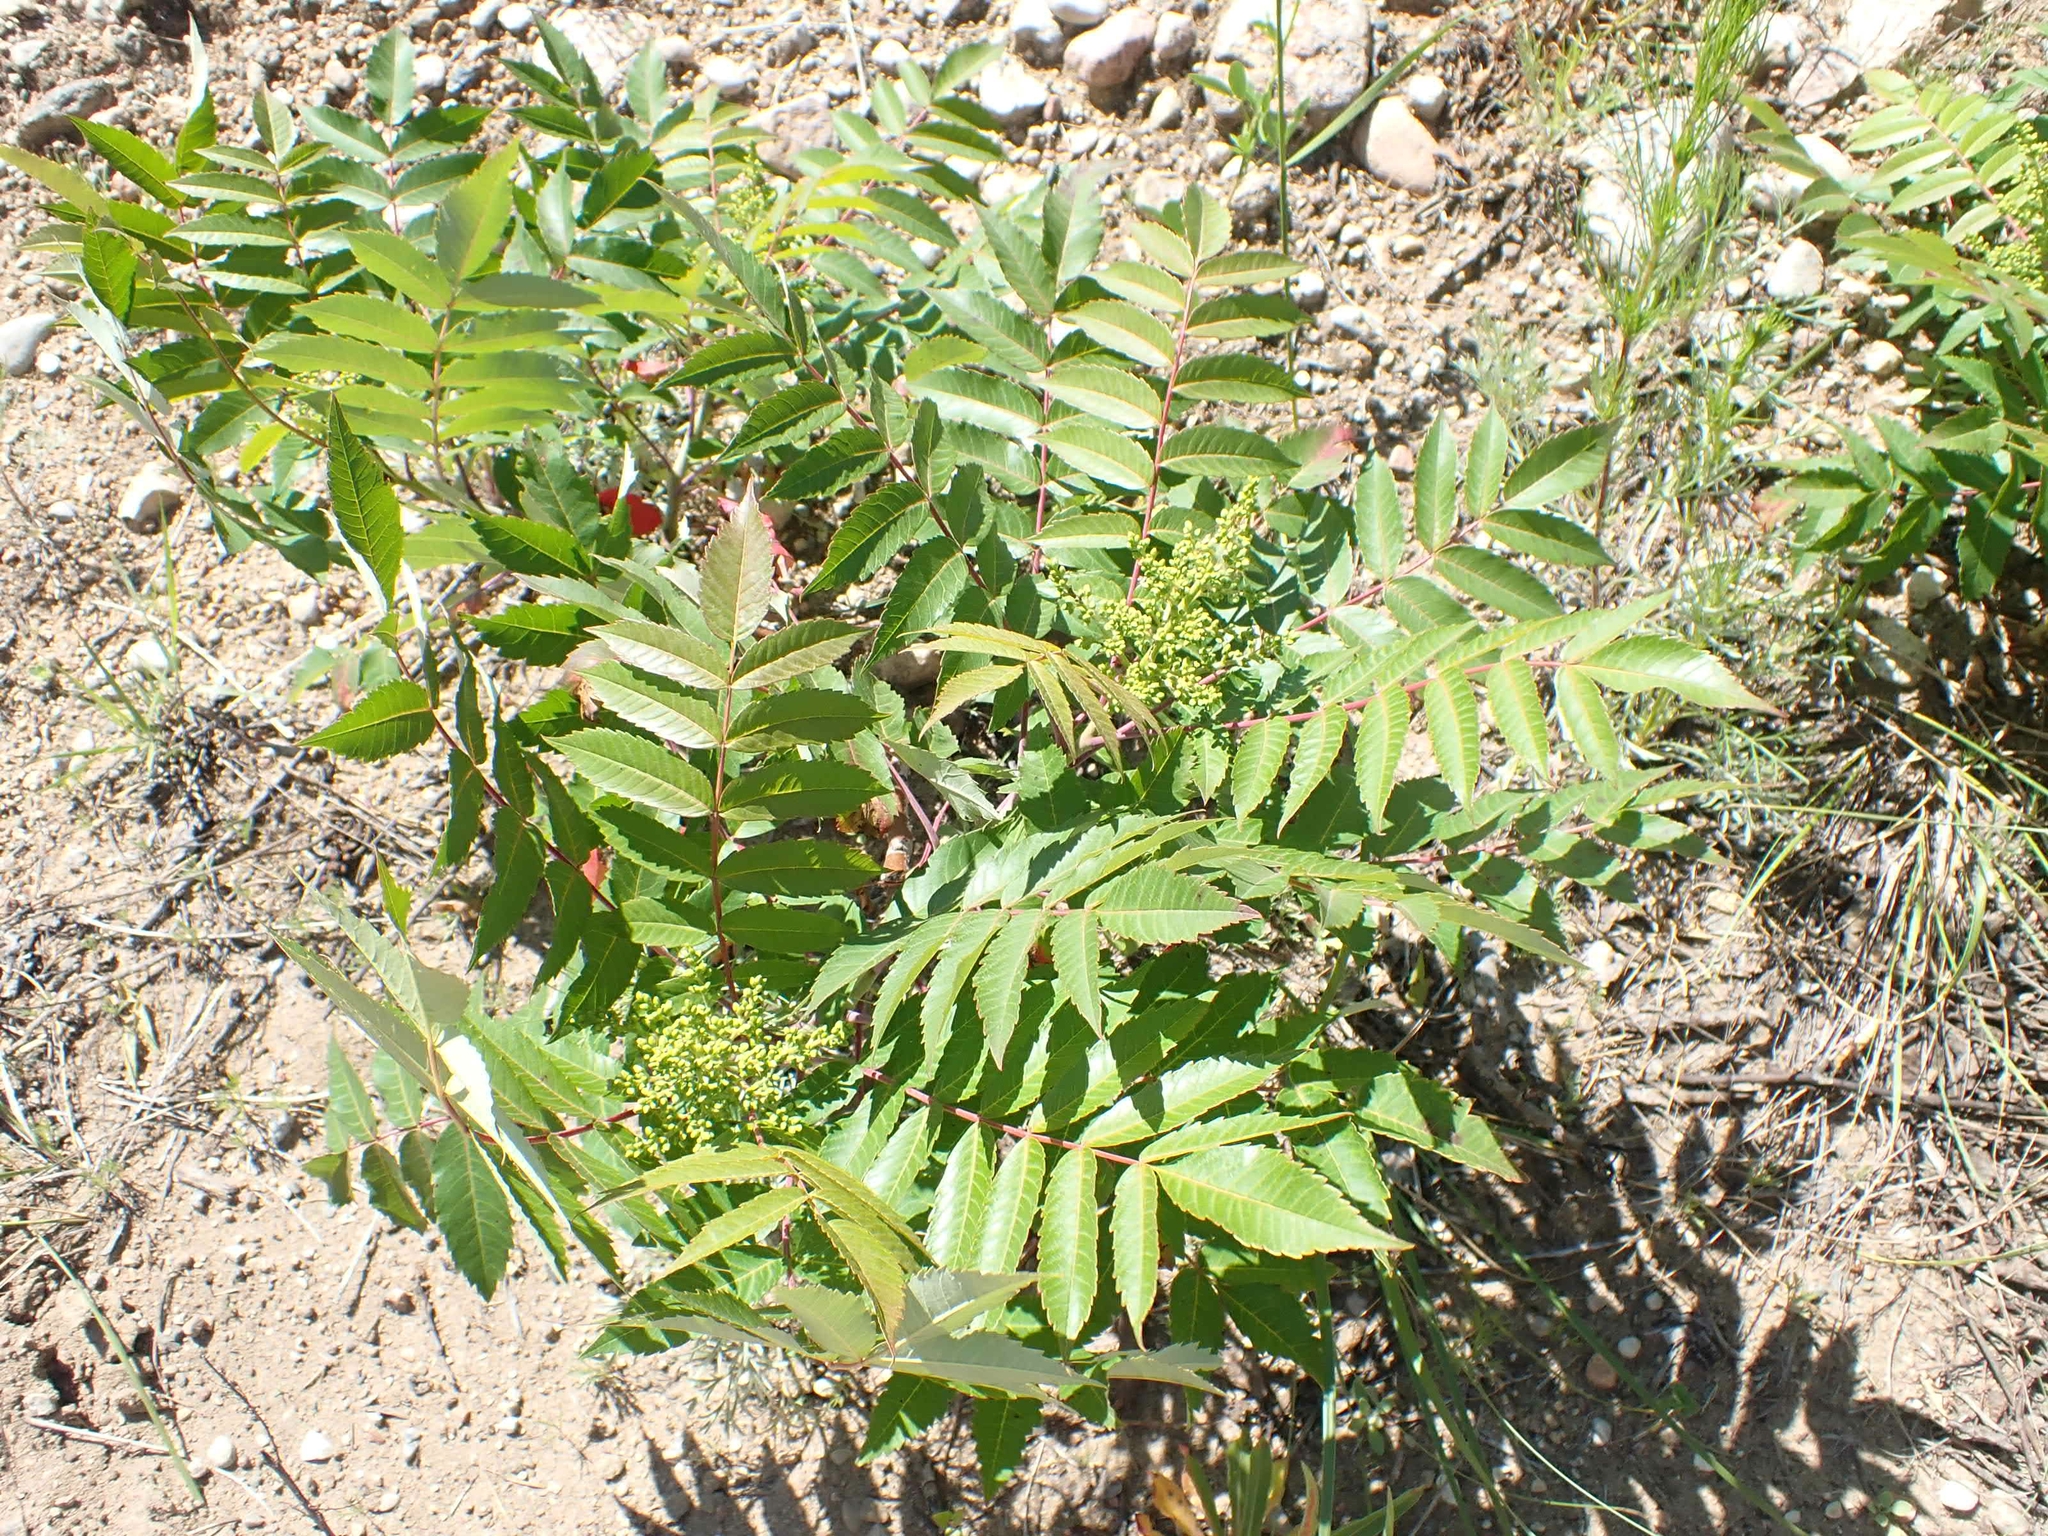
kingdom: Plantae
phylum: Tracheophyta
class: Magnoliopsida
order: Sapindales
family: Anacardiaceae
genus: Rhus
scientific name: Rhus glabra
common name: Scarlet sumac
